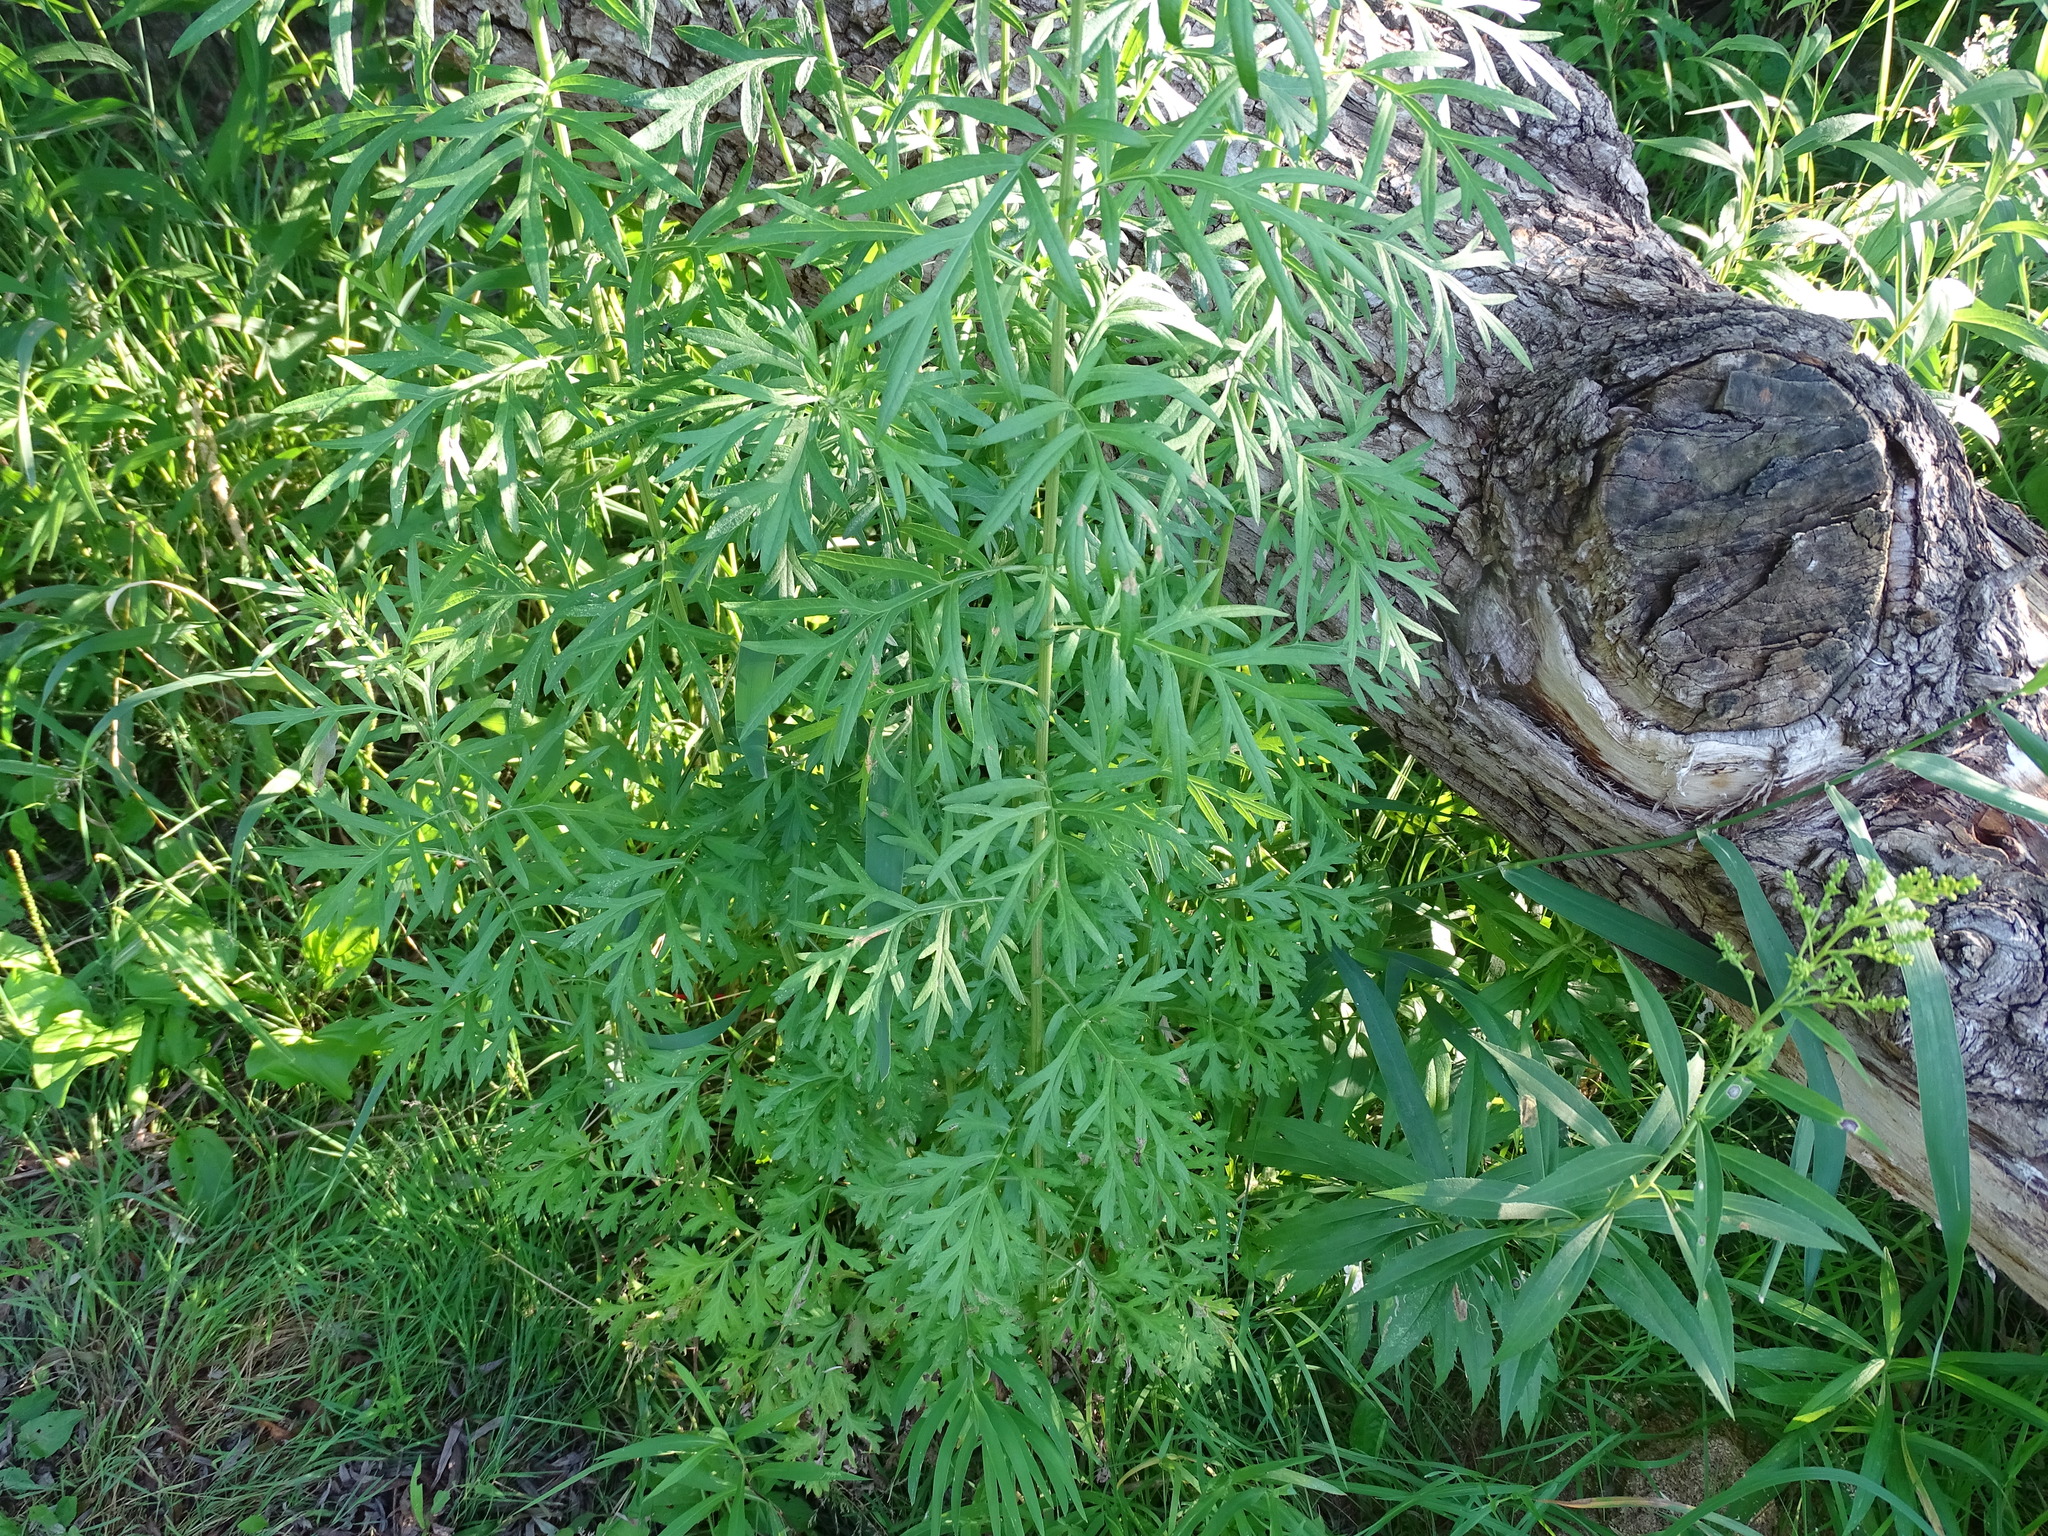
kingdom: Plantae
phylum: Tracheophyta
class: Magnoliopsida
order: Asterales
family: Asteraceae
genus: Artemisia
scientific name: Artemisia vulgaris
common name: Mugwort
